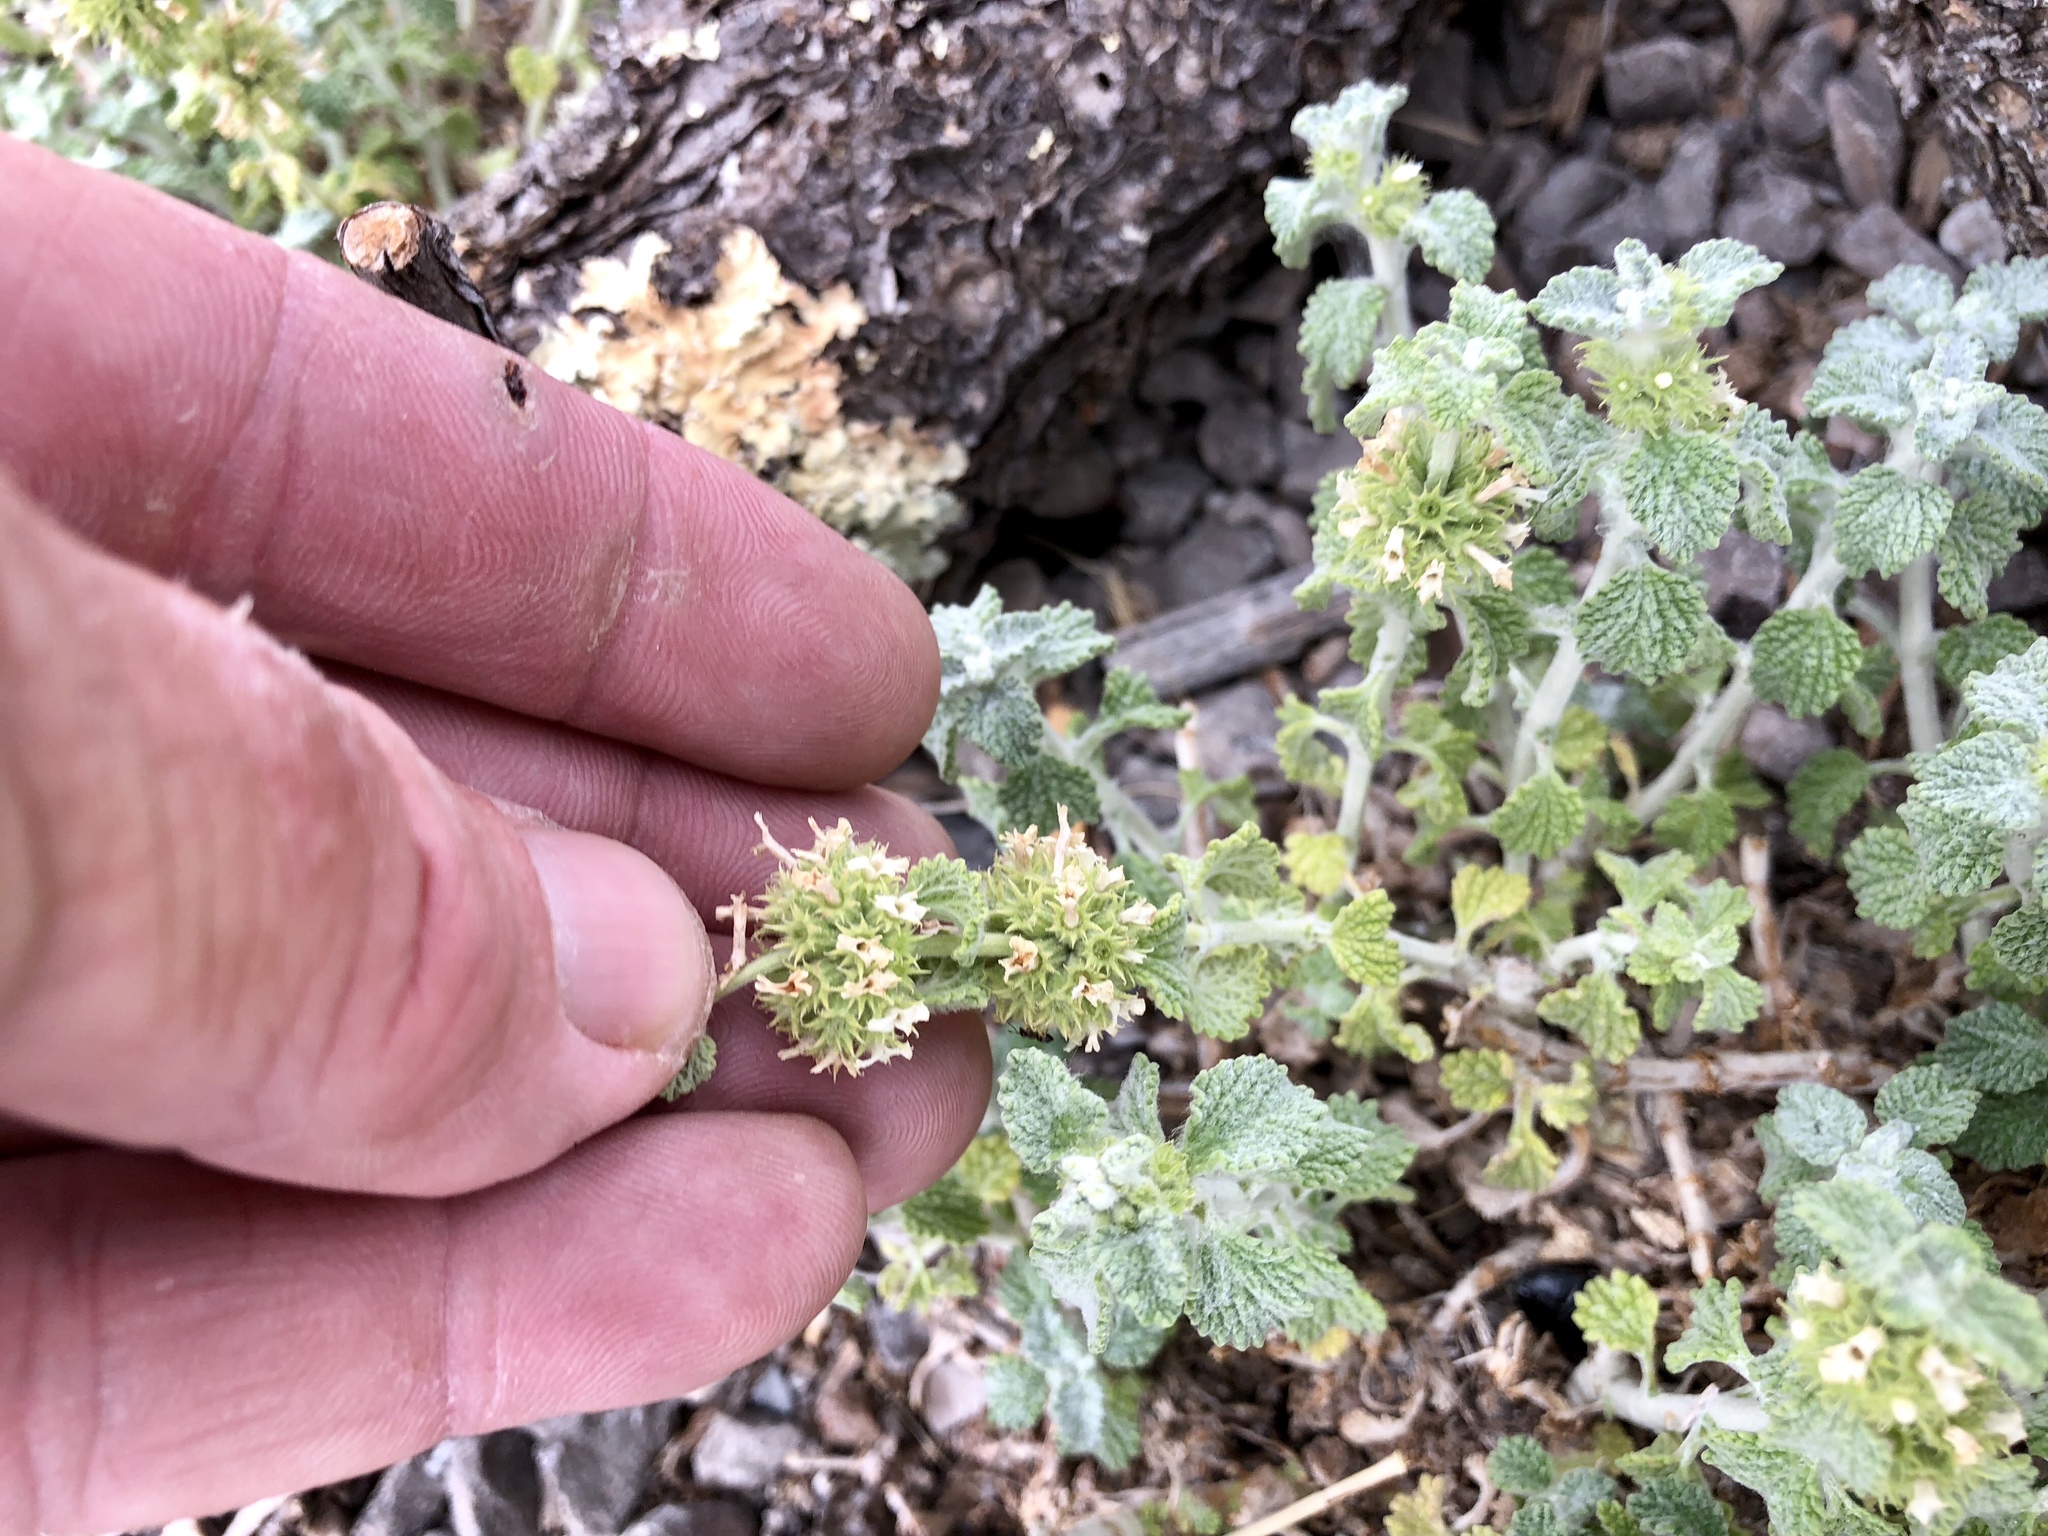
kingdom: Plantae
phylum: Tracheophyta
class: Magnoliopsida
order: Lamiales
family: Lamiaceae
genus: Marrubium
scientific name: Marrubium vulgare
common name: Horehound
